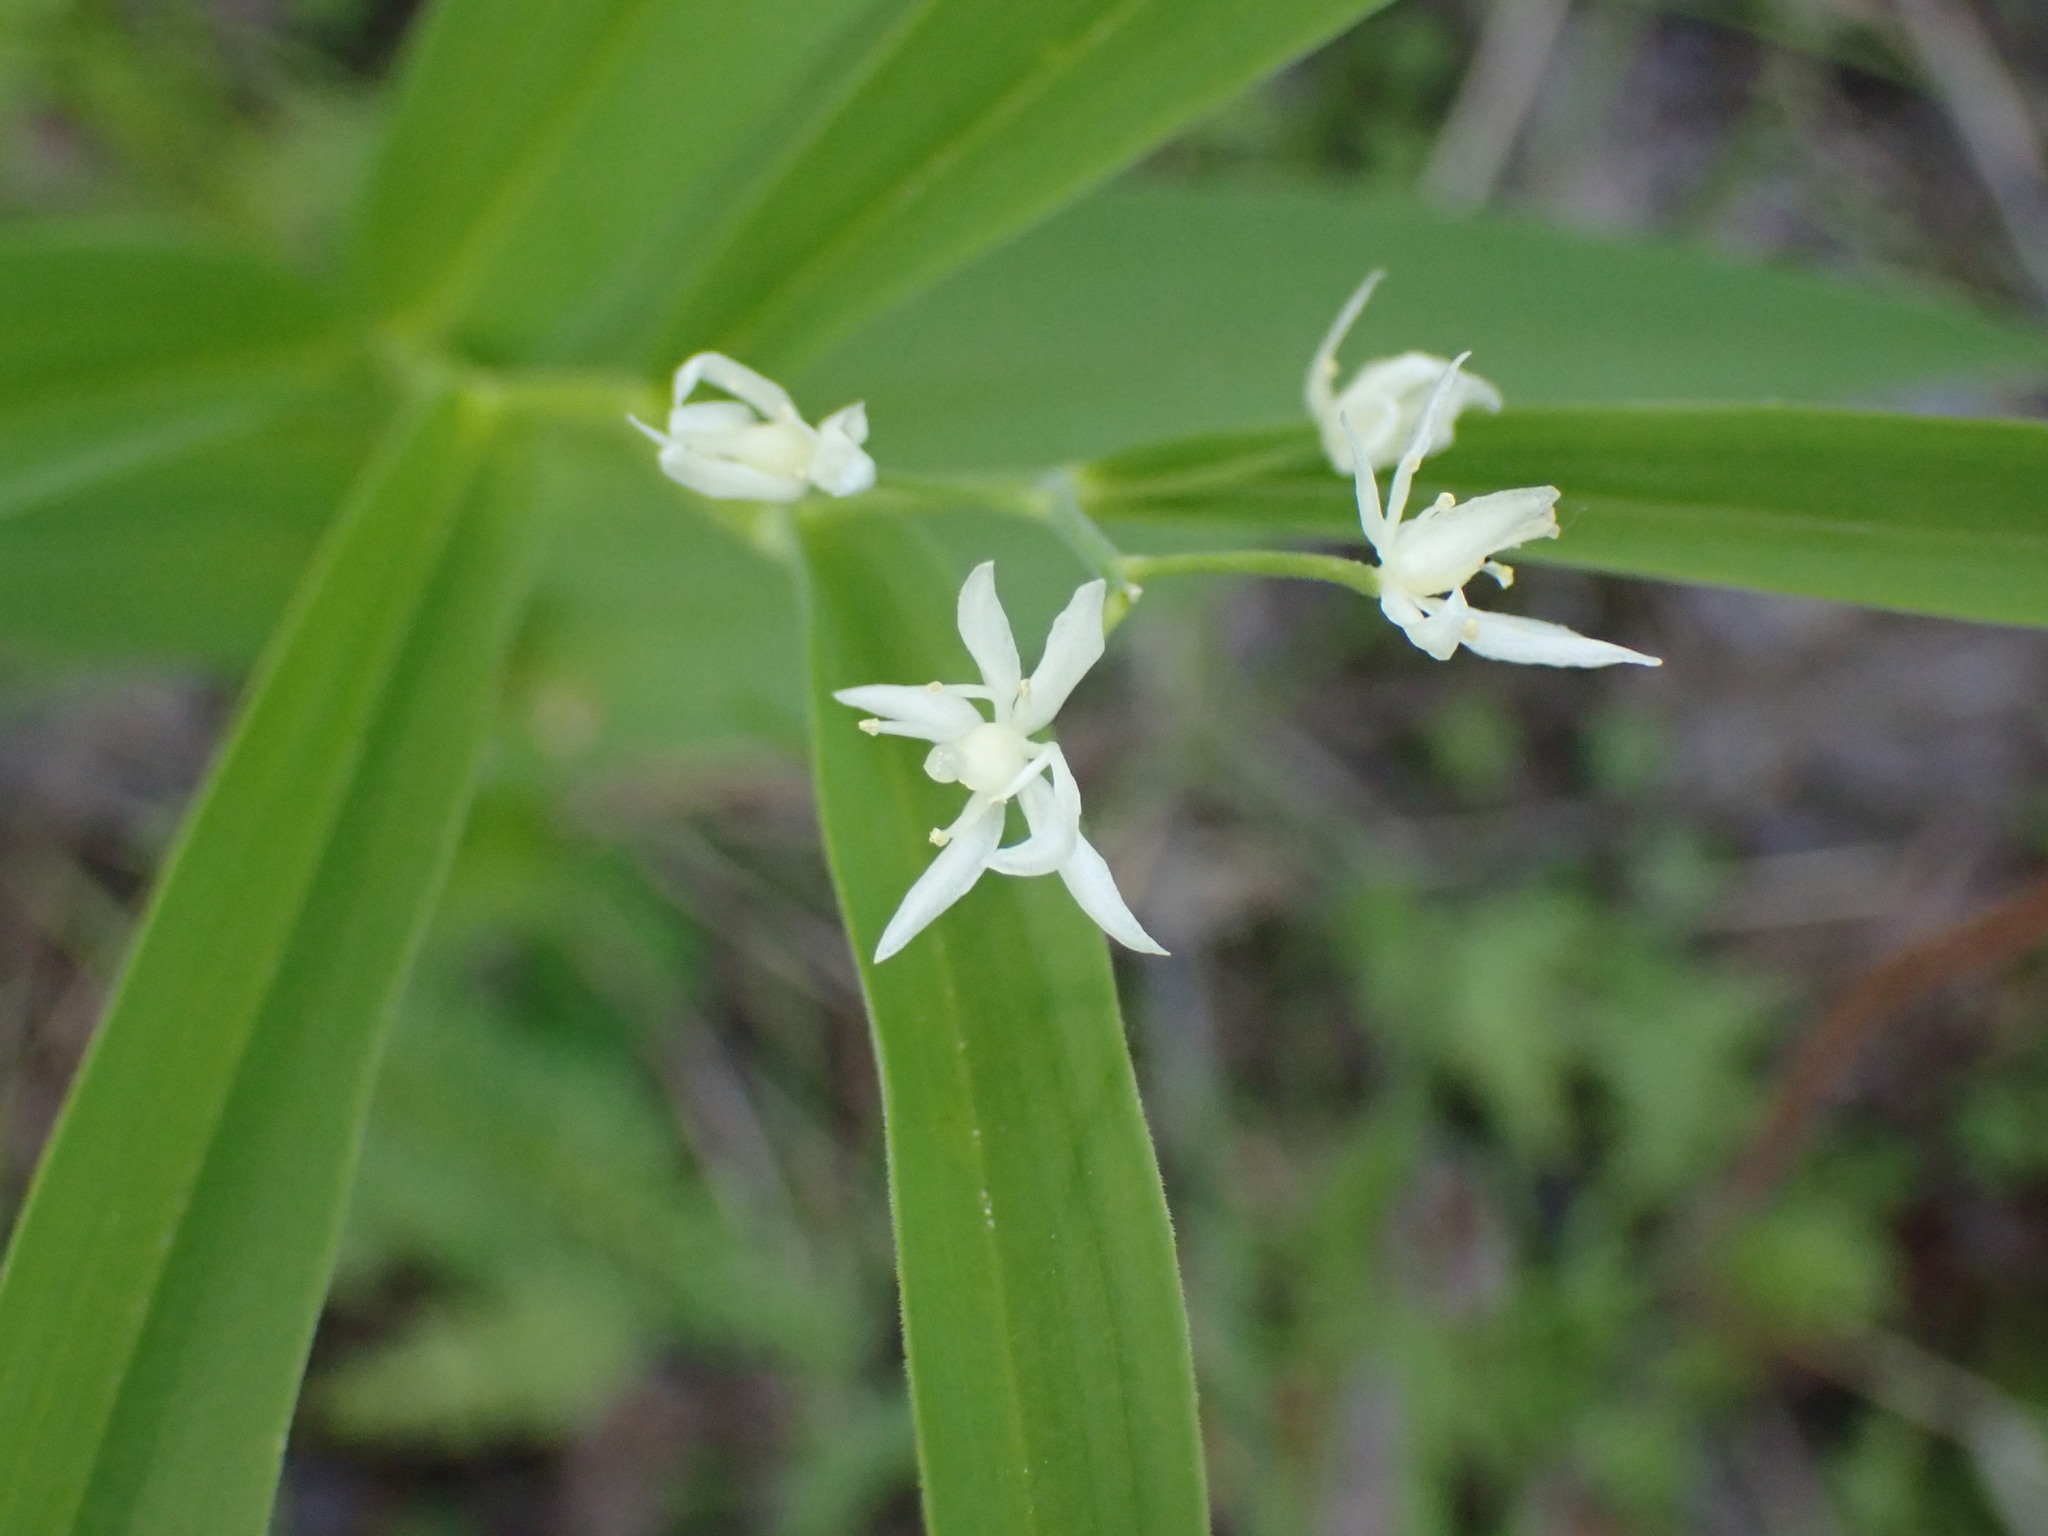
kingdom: Plantae
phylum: Tracheophyta
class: Liliopsida
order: Asparagales
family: Asparagaceae
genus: Maianthemum
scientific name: Maianthemum stellatum
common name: Little false solomon's seal
